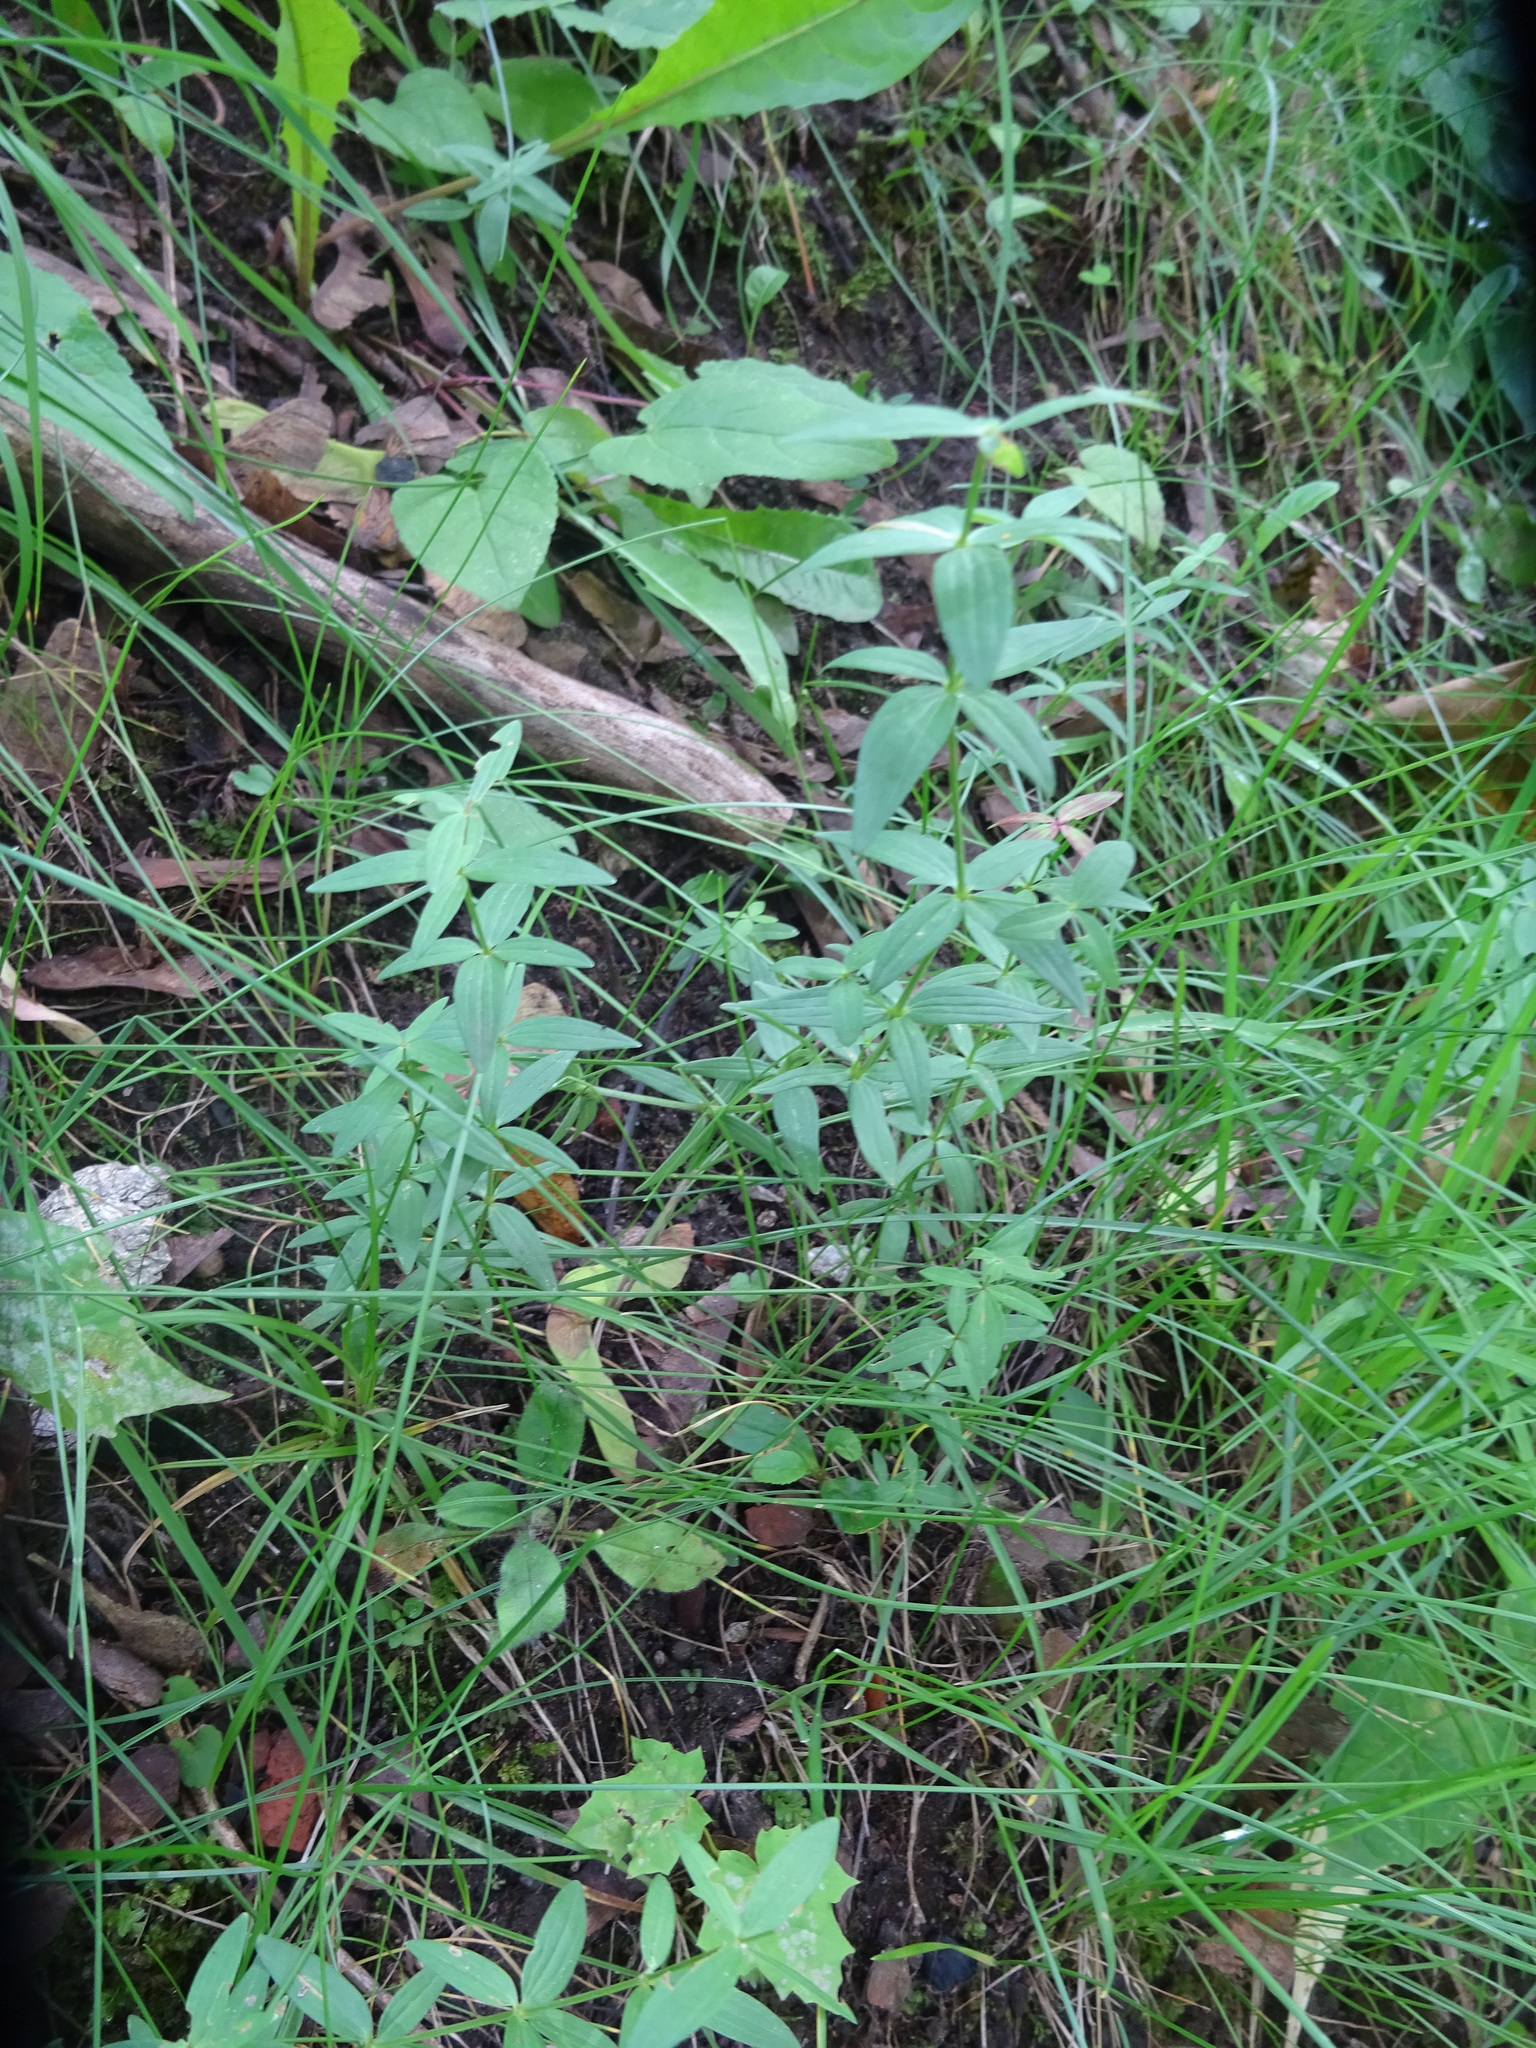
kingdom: Plantae
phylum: Tracheophyta
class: Magnoliopsida
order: Gentianales
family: Rubiaceae
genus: Galium
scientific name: Galium boreale
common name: Northern bedstraw
